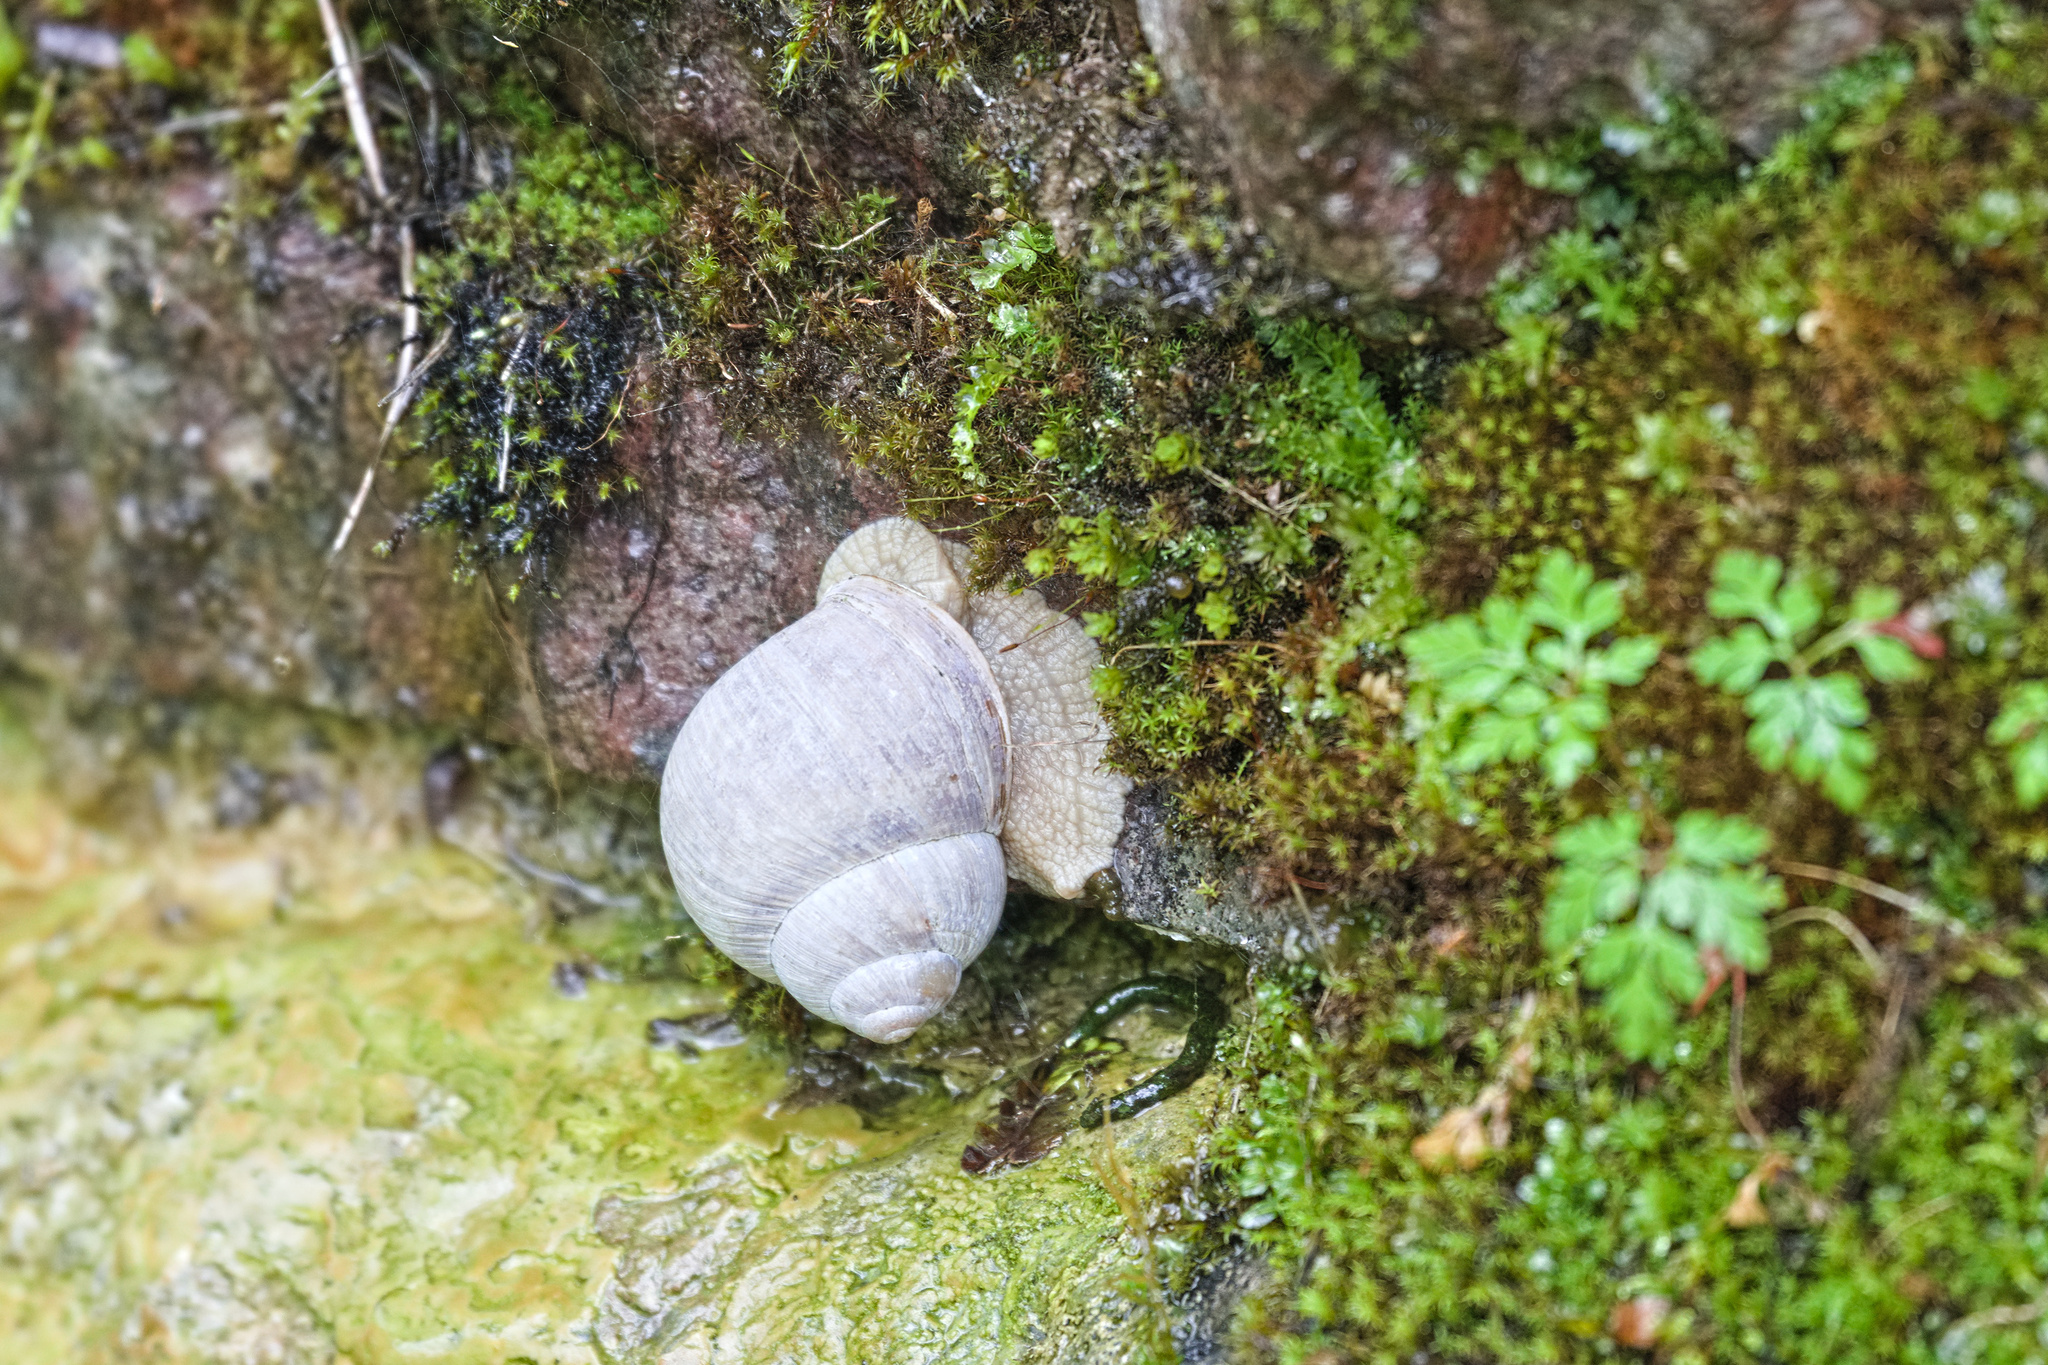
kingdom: Animalia
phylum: Mollusca
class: Gastropoda
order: Stylommatophora
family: Helicidae
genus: Helix
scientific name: Helix pomatia
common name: Roman snail
